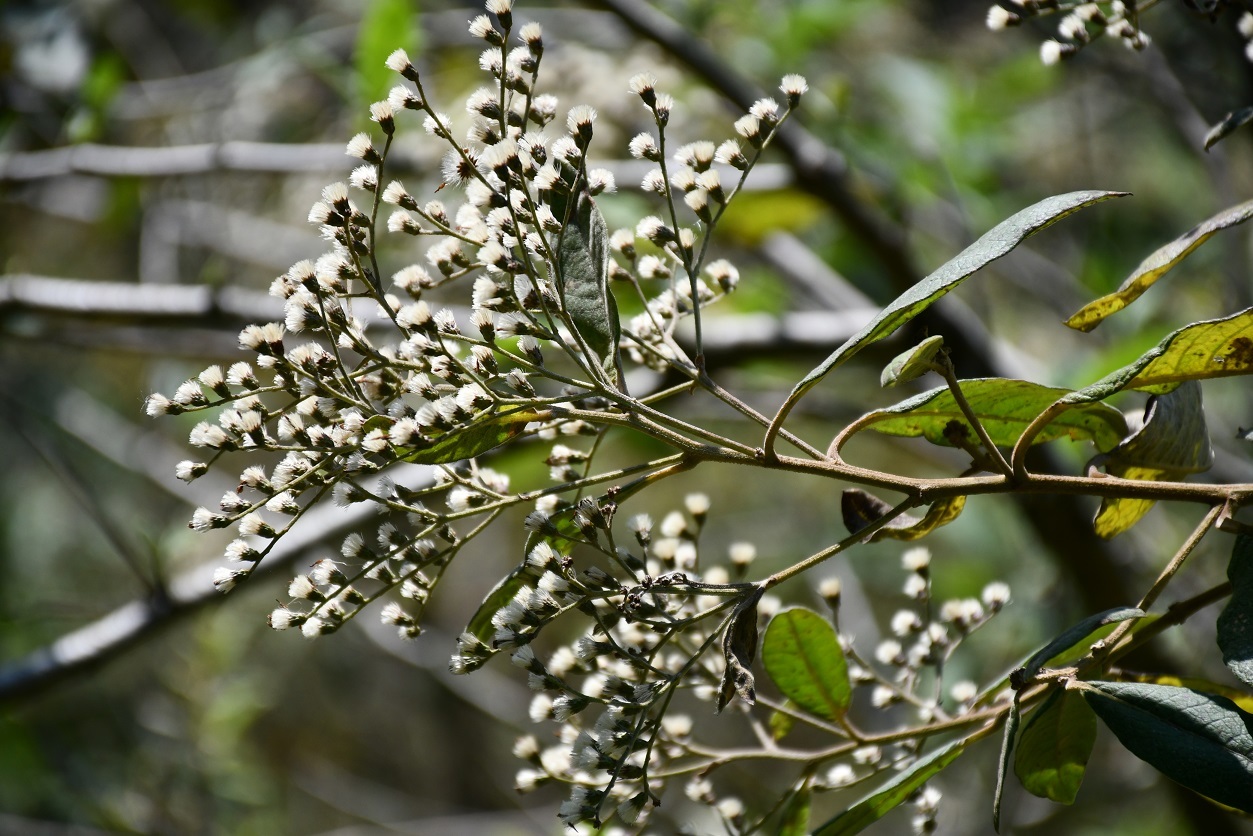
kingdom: Plantae
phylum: Tracheophyta
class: Magnoliopsida
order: Asterales
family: Asteraceae
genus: Lepidaploa
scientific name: Lepidaploa polypleura
